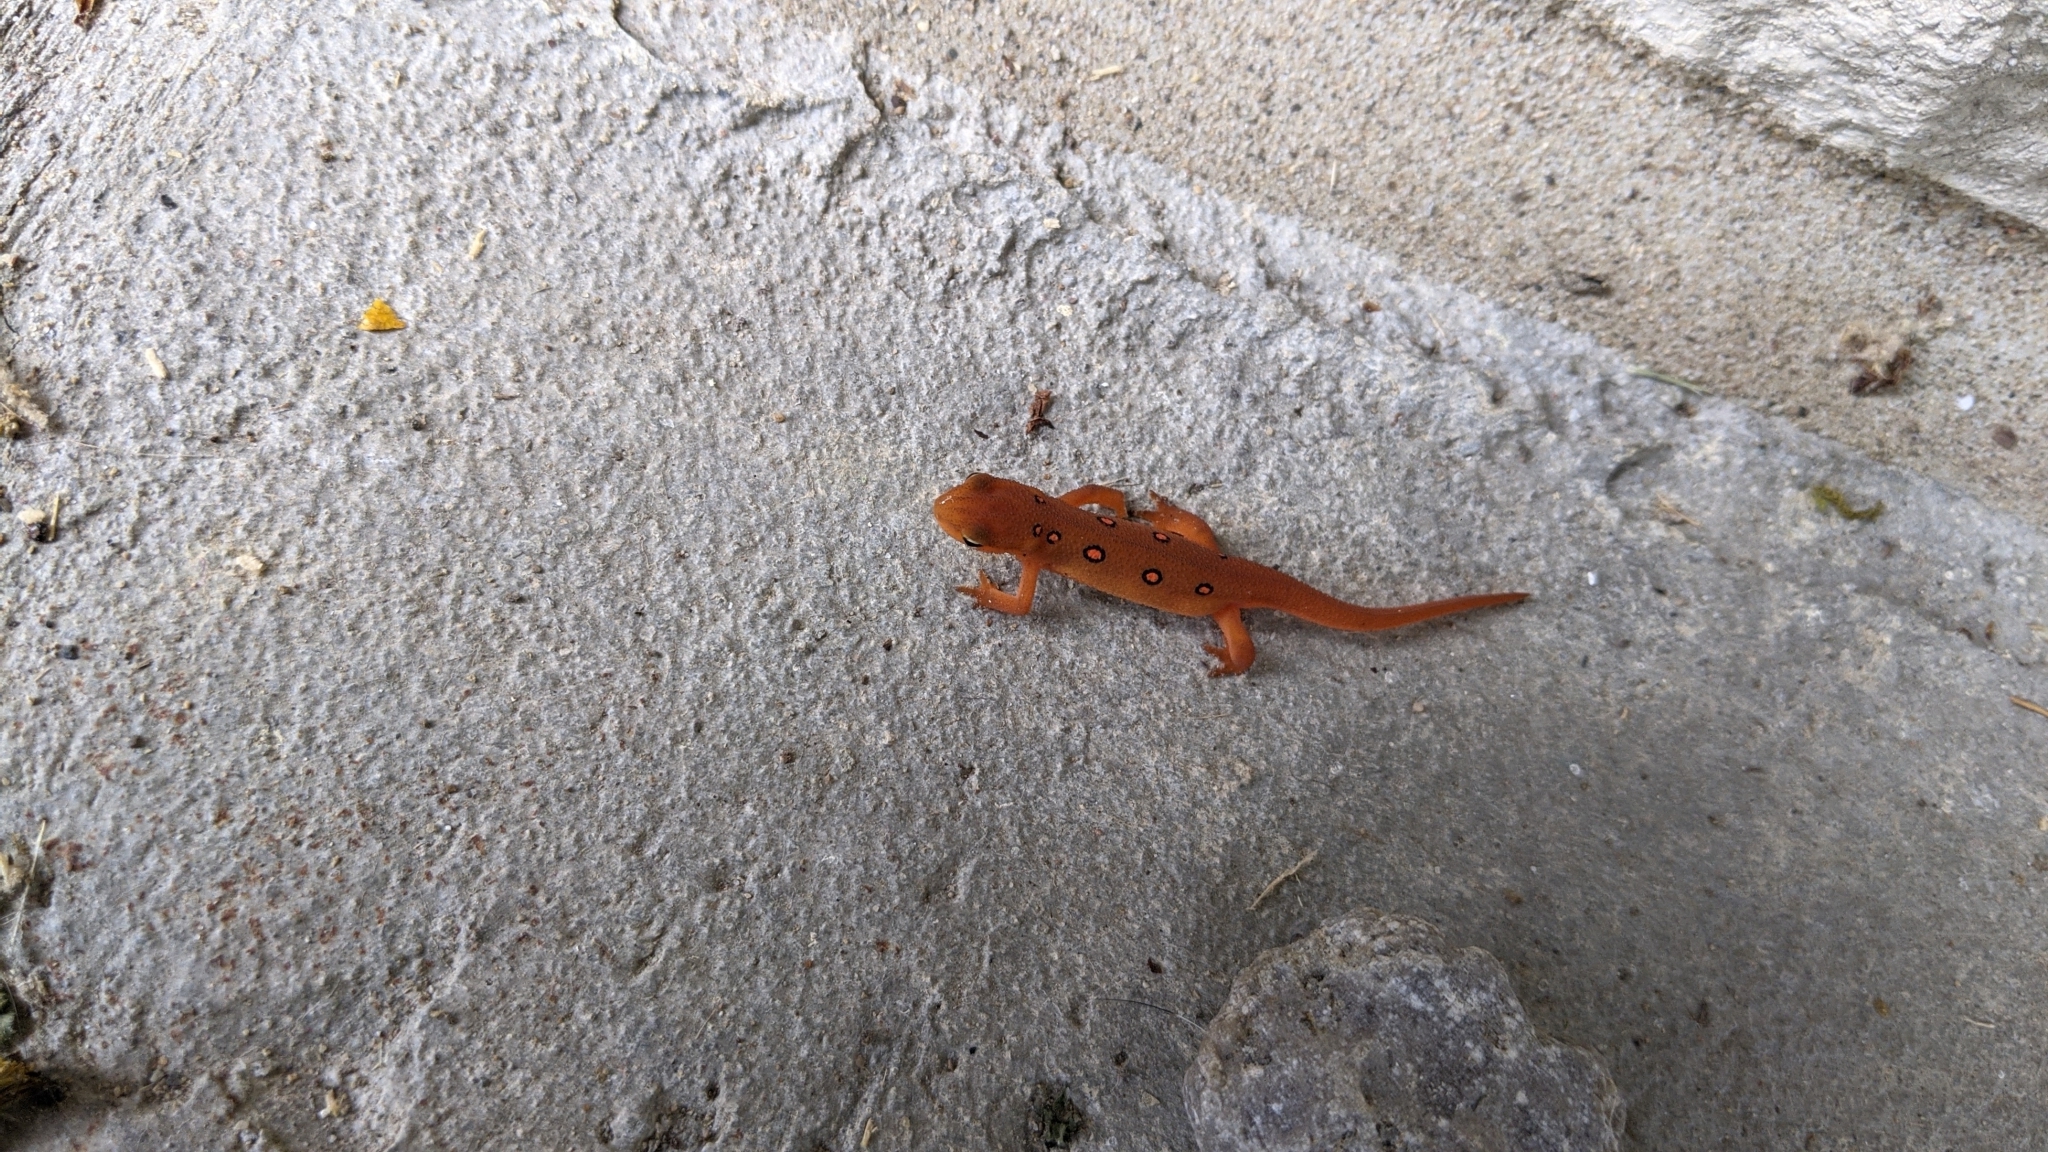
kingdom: Animalia
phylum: Chordata
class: Amphibia
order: Caudata
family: Salamandridae
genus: Notophthalmus
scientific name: Notophthalmus viridescens
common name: Eastern newt
